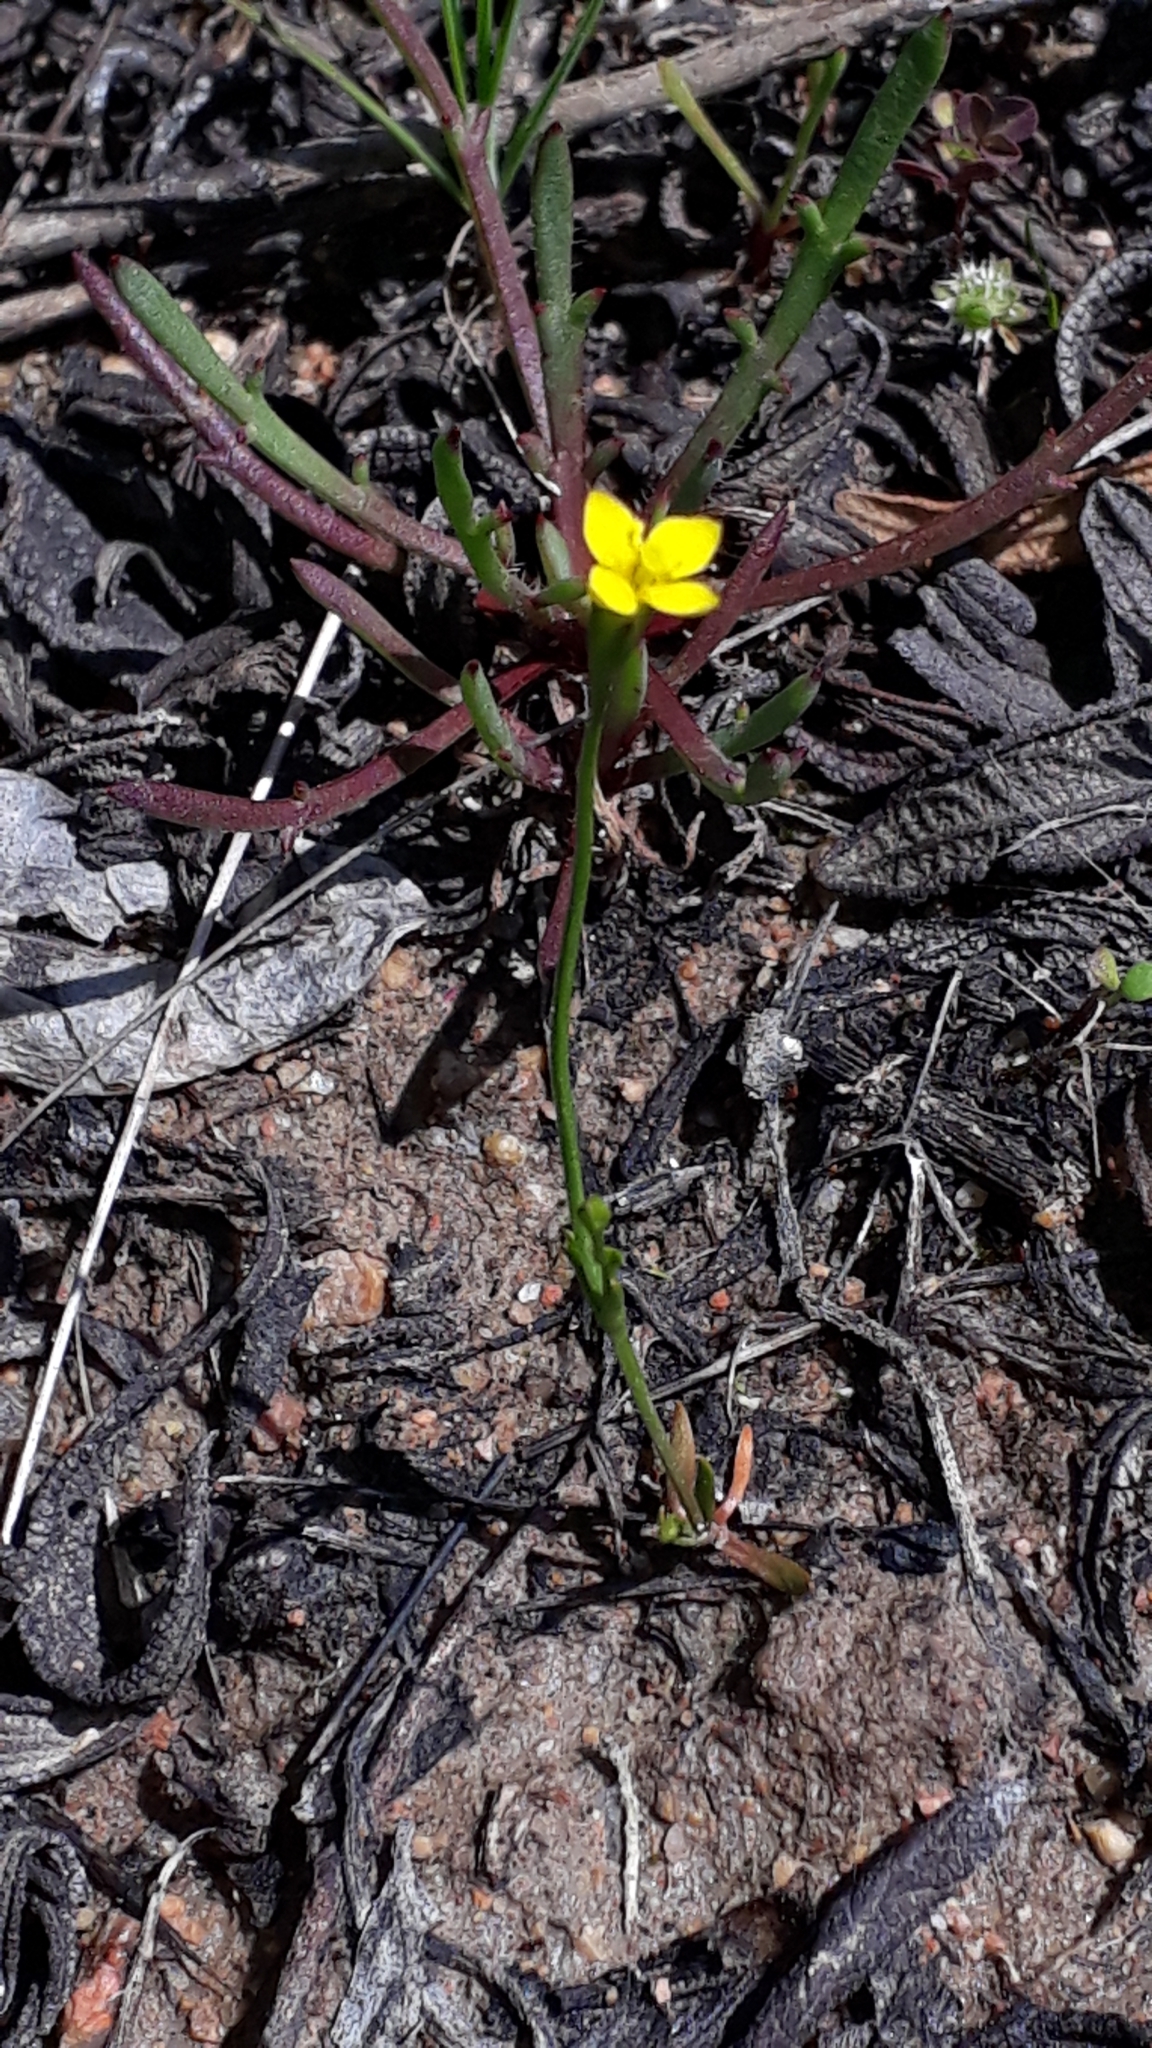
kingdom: Plantae
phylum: Tracheophyta
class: Magnoliopsida
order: Gentianales
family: Gentianaceae
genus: Cicendia
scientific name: Cicendia filiformis
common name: Yellow centaury
